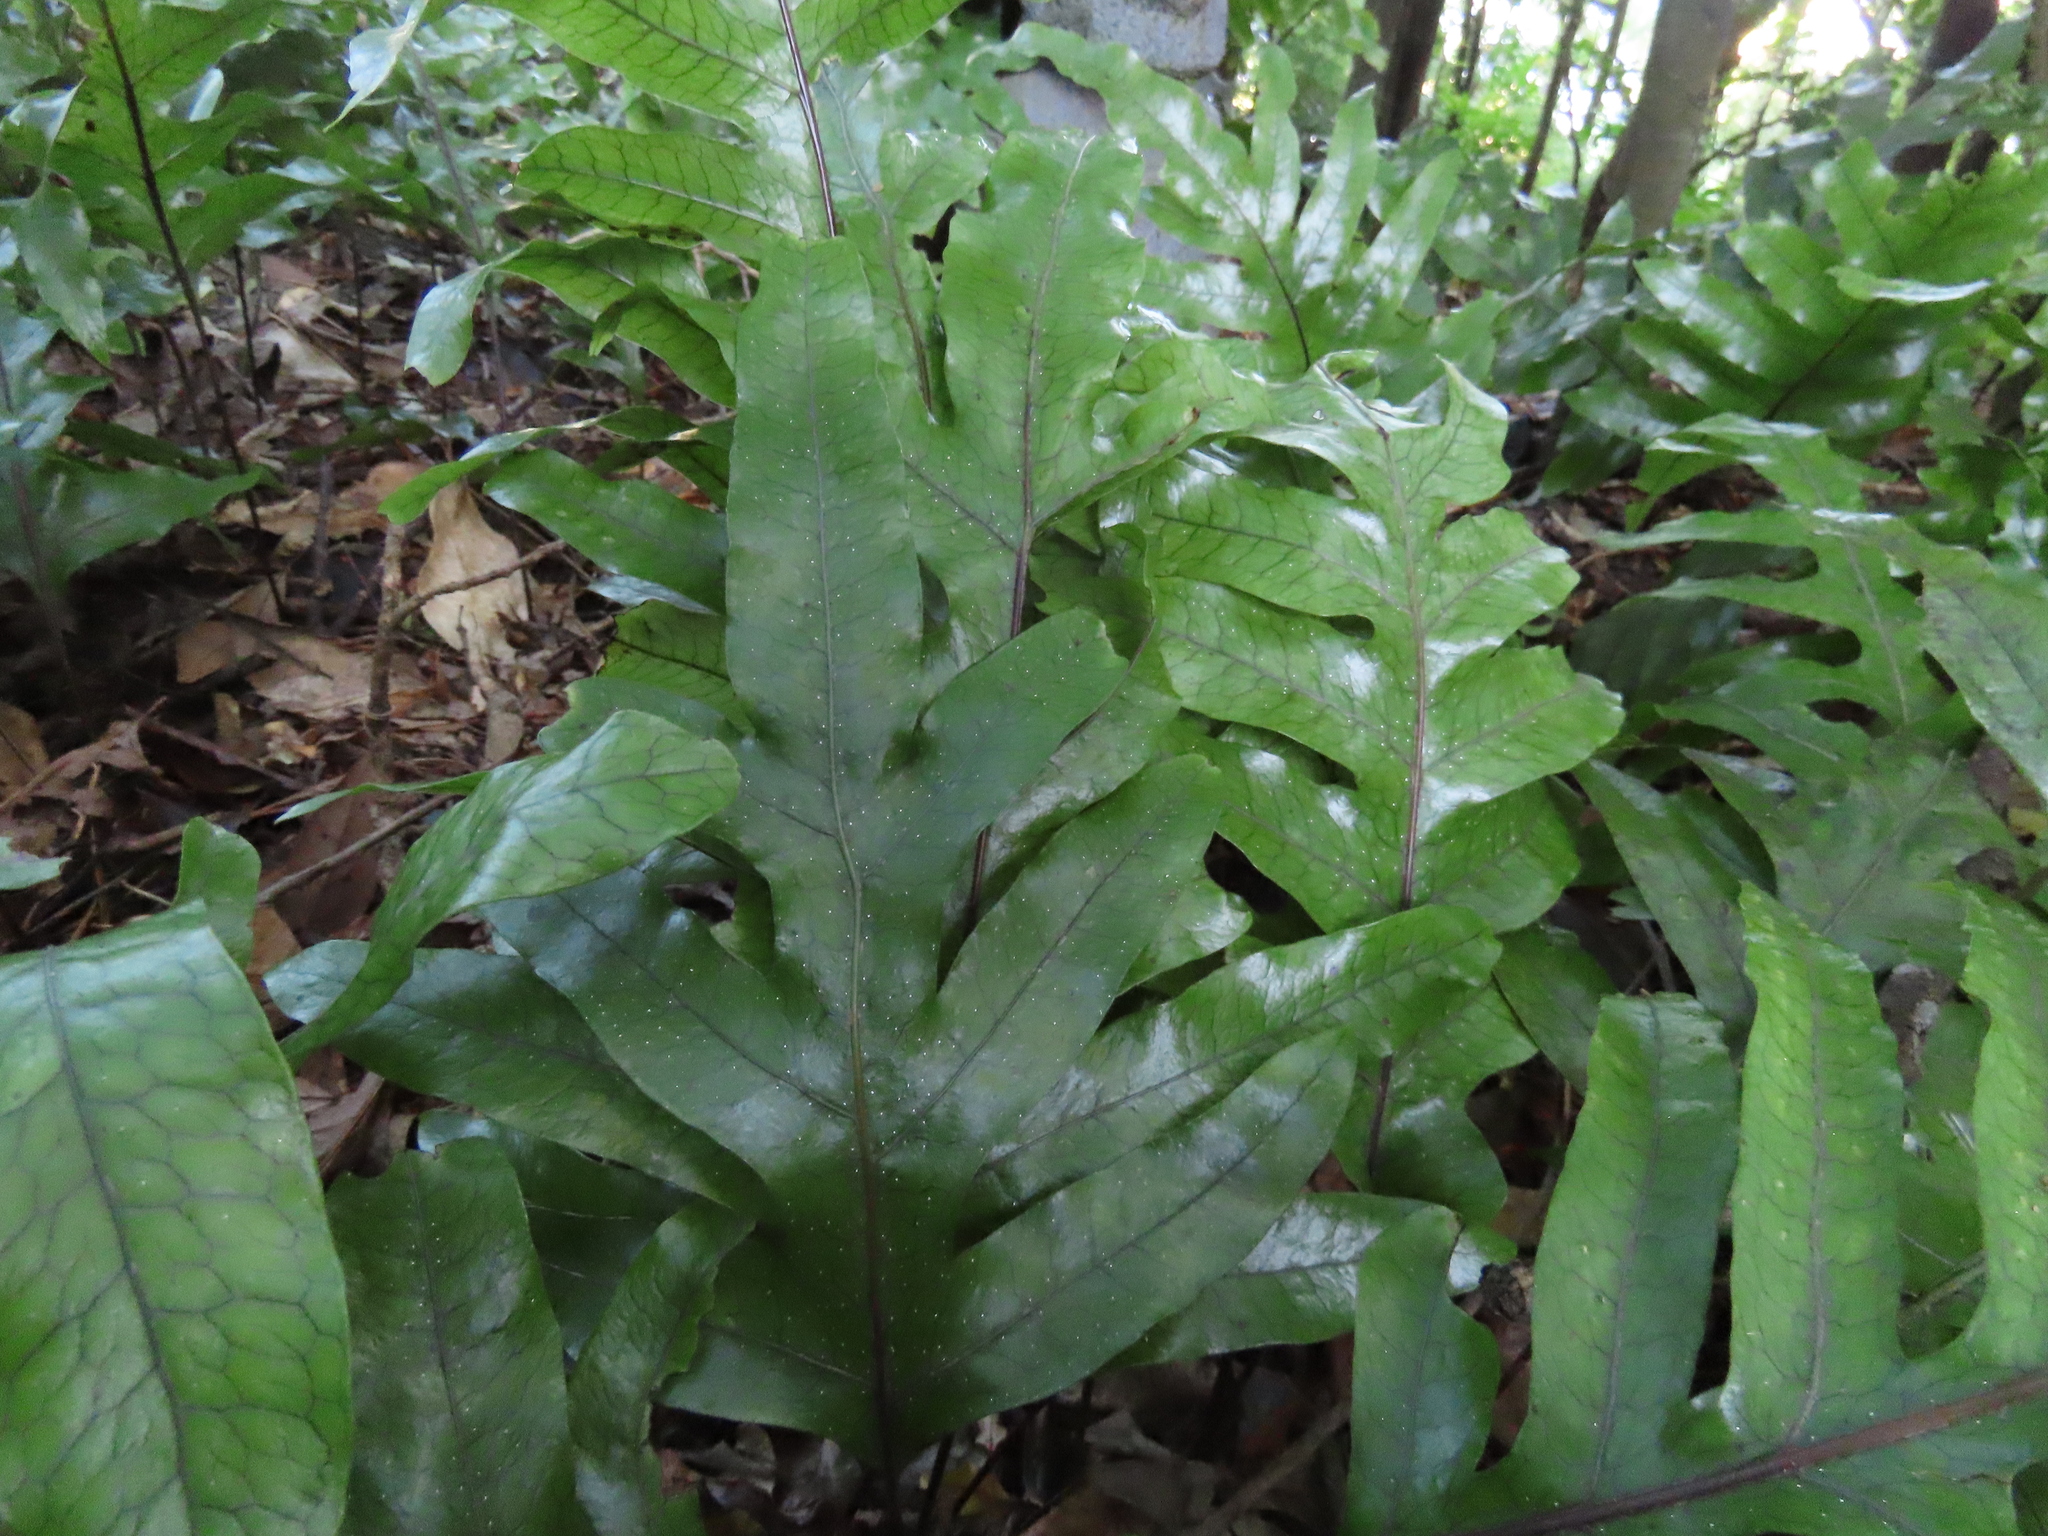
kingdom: Plantae
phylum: Tracheophyta
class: Polypodiopsida
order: Polypodiales
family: Polypodiaceae
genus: Lecanopteris
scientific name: Lecanopteris pustulata
